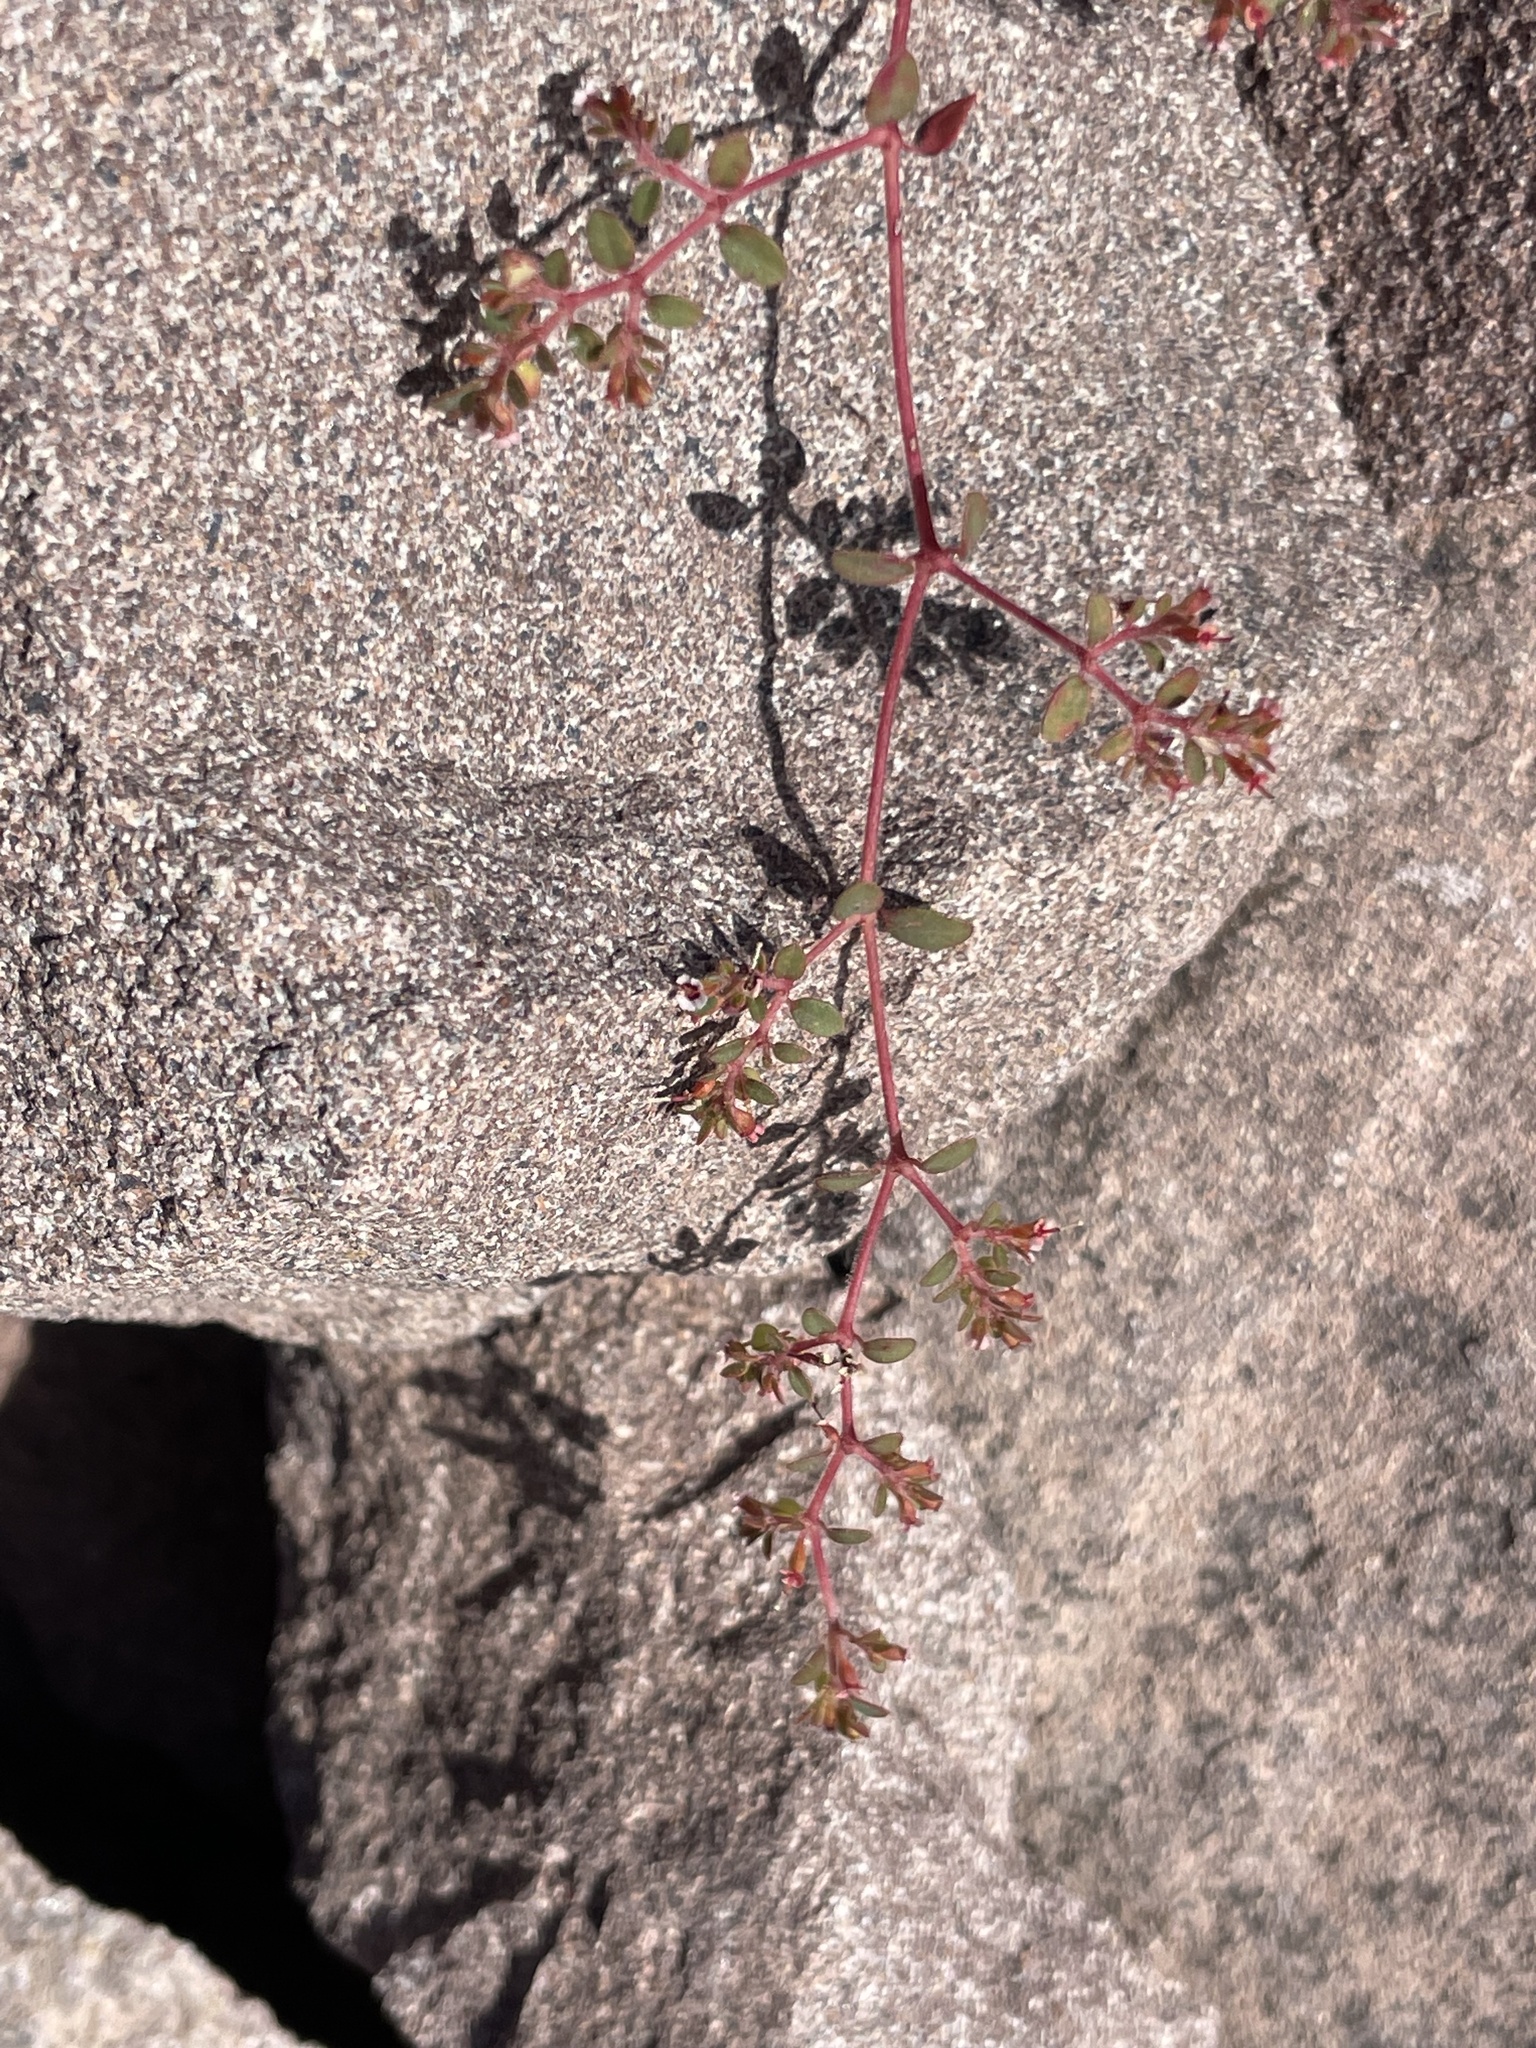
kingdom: Plantae
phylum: Tracheophyta
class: Magnoliopsida
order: Malpighiales
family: Euphorbiaceae
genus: Euphorbia
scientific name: Euphorbia arizonica
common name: Arizona spurge
